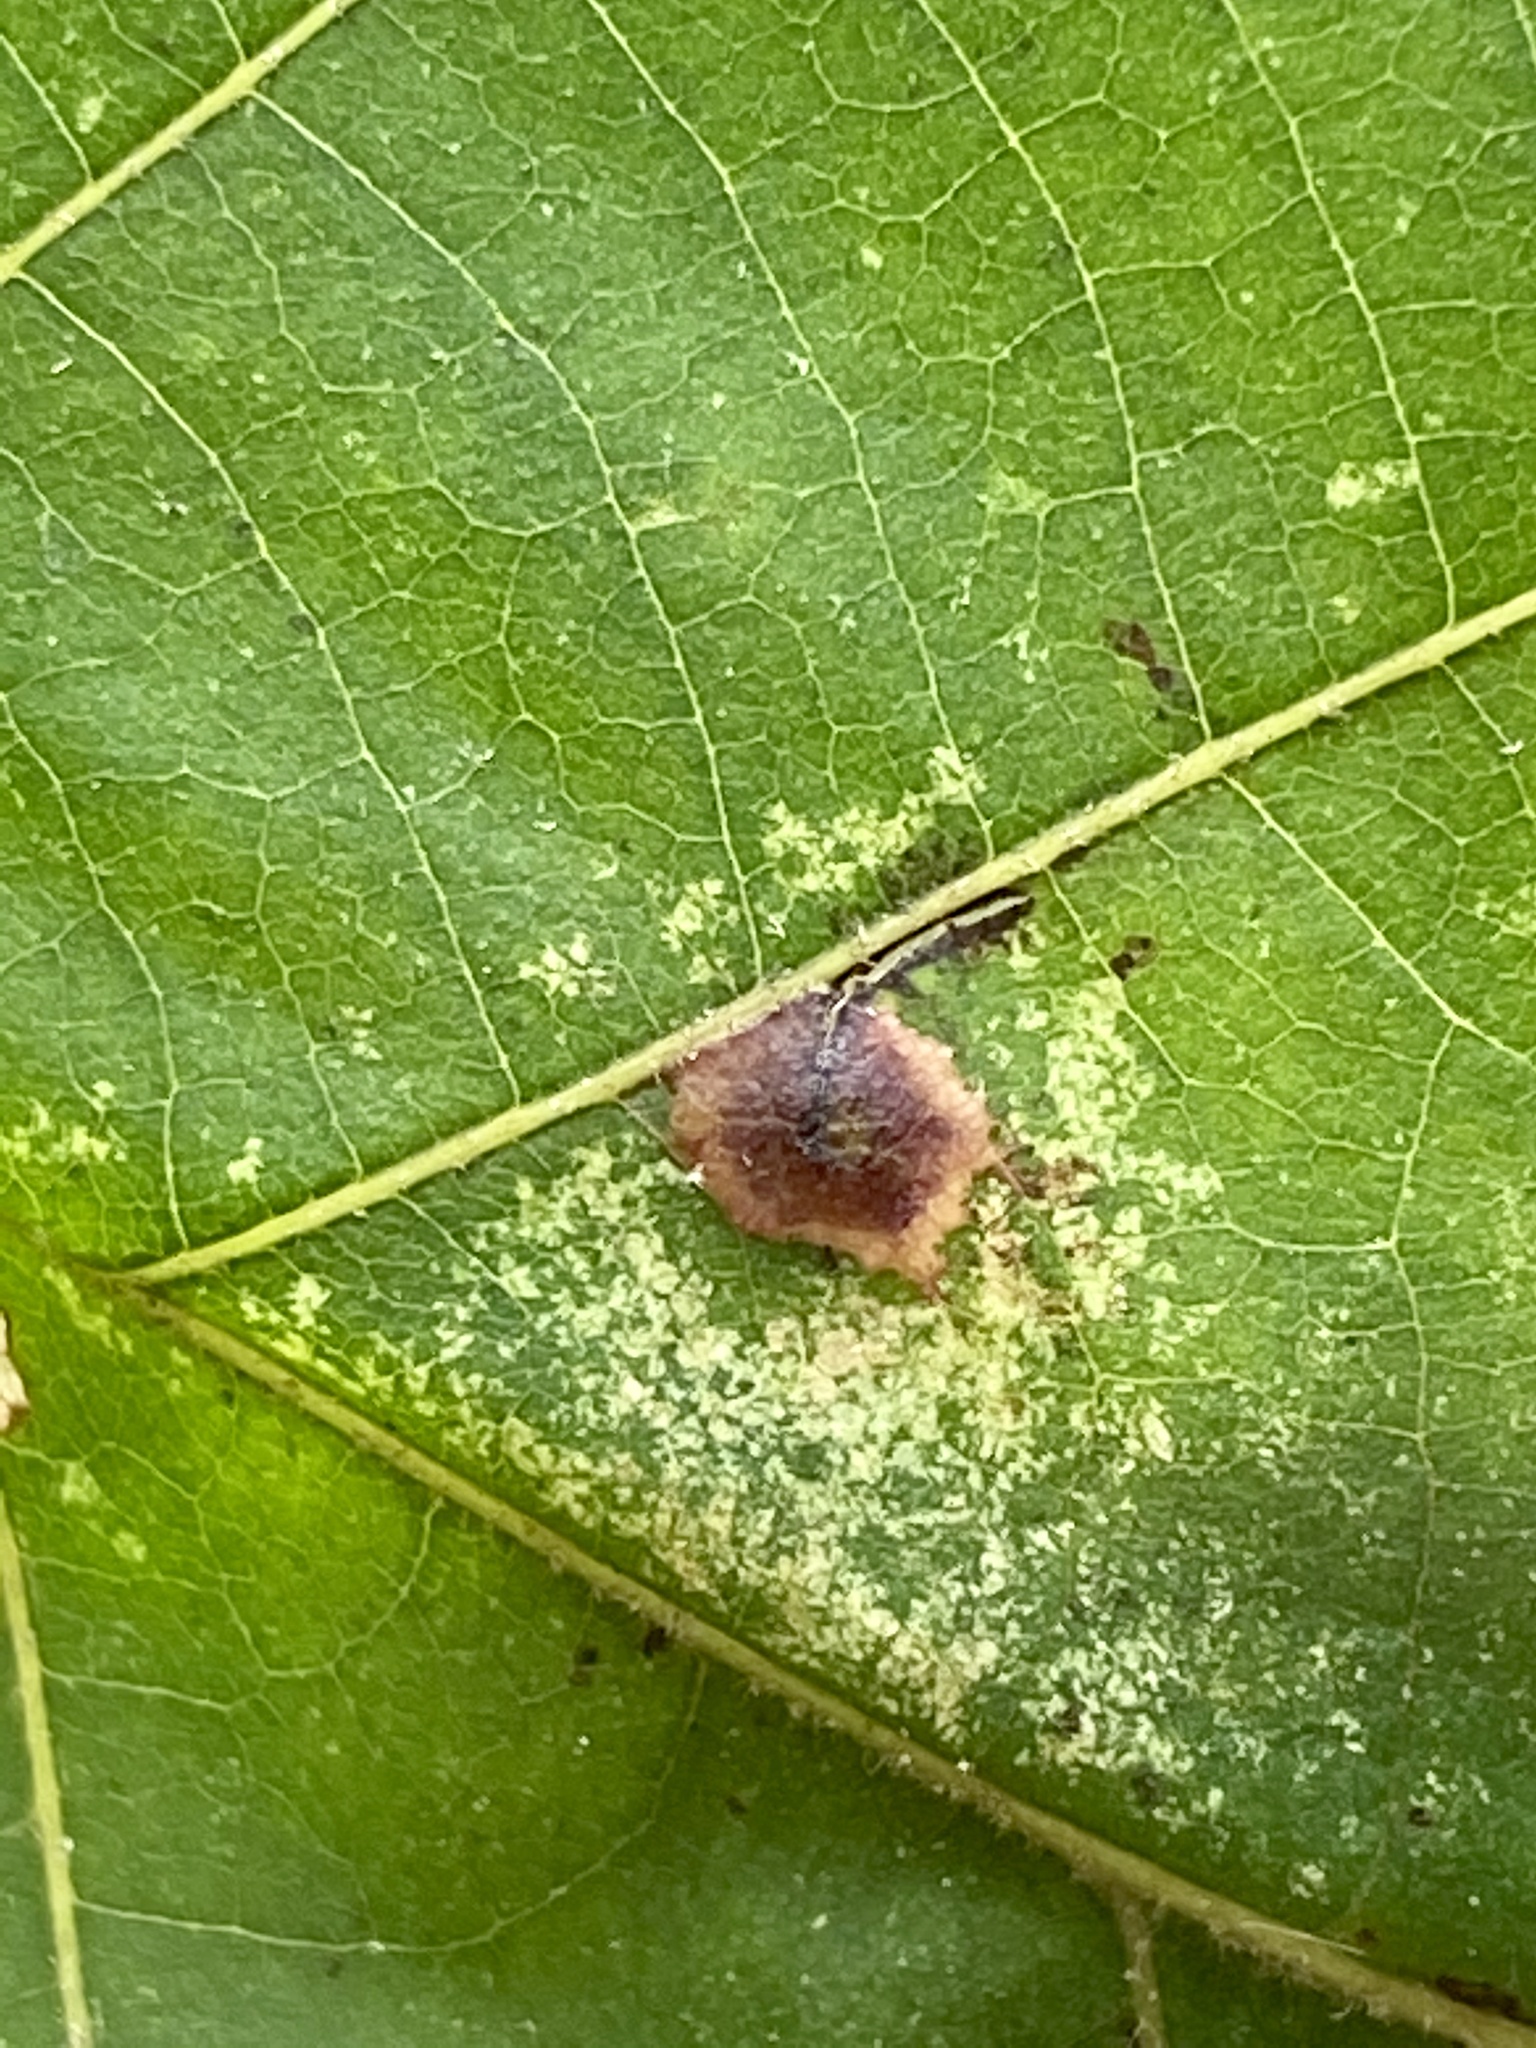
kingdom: Animalia
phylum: Arthropoda
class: Insecta
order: Diptera
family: Cecidomyiidae
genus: Caryomyia
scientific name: Caryomyia inanis
